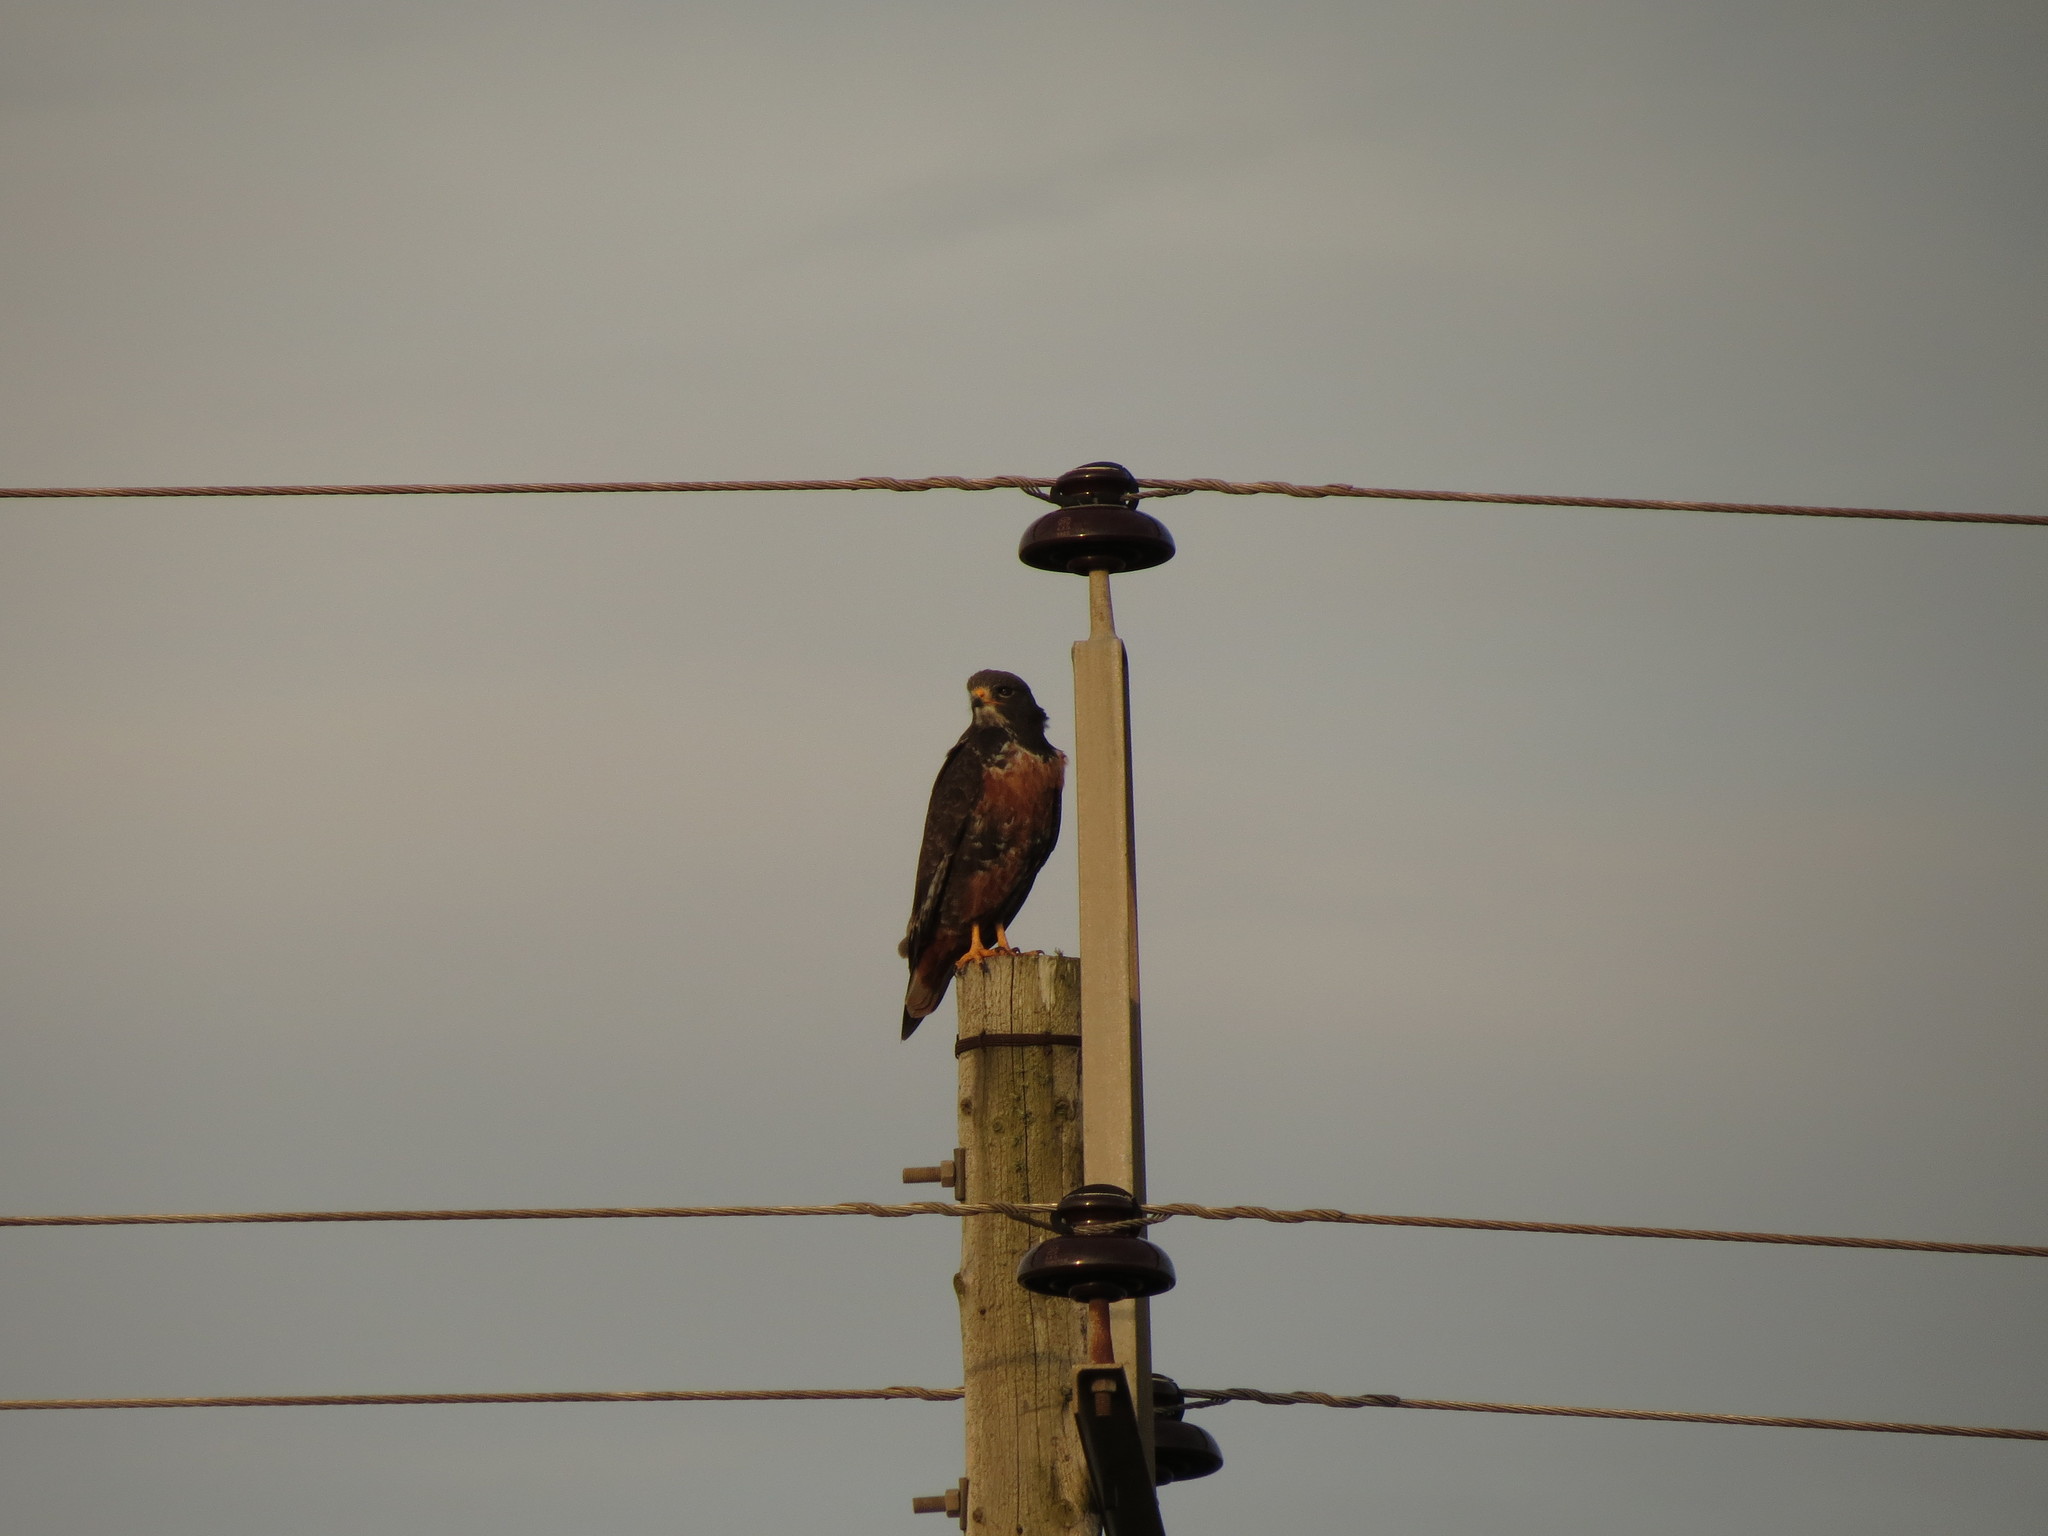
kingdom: Animalia
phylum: Chordata
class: Aves
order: Accipitriformes
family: Accipitridae
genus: Buteo
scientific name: Buteo rufofuscus
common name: Jackal buzzard
